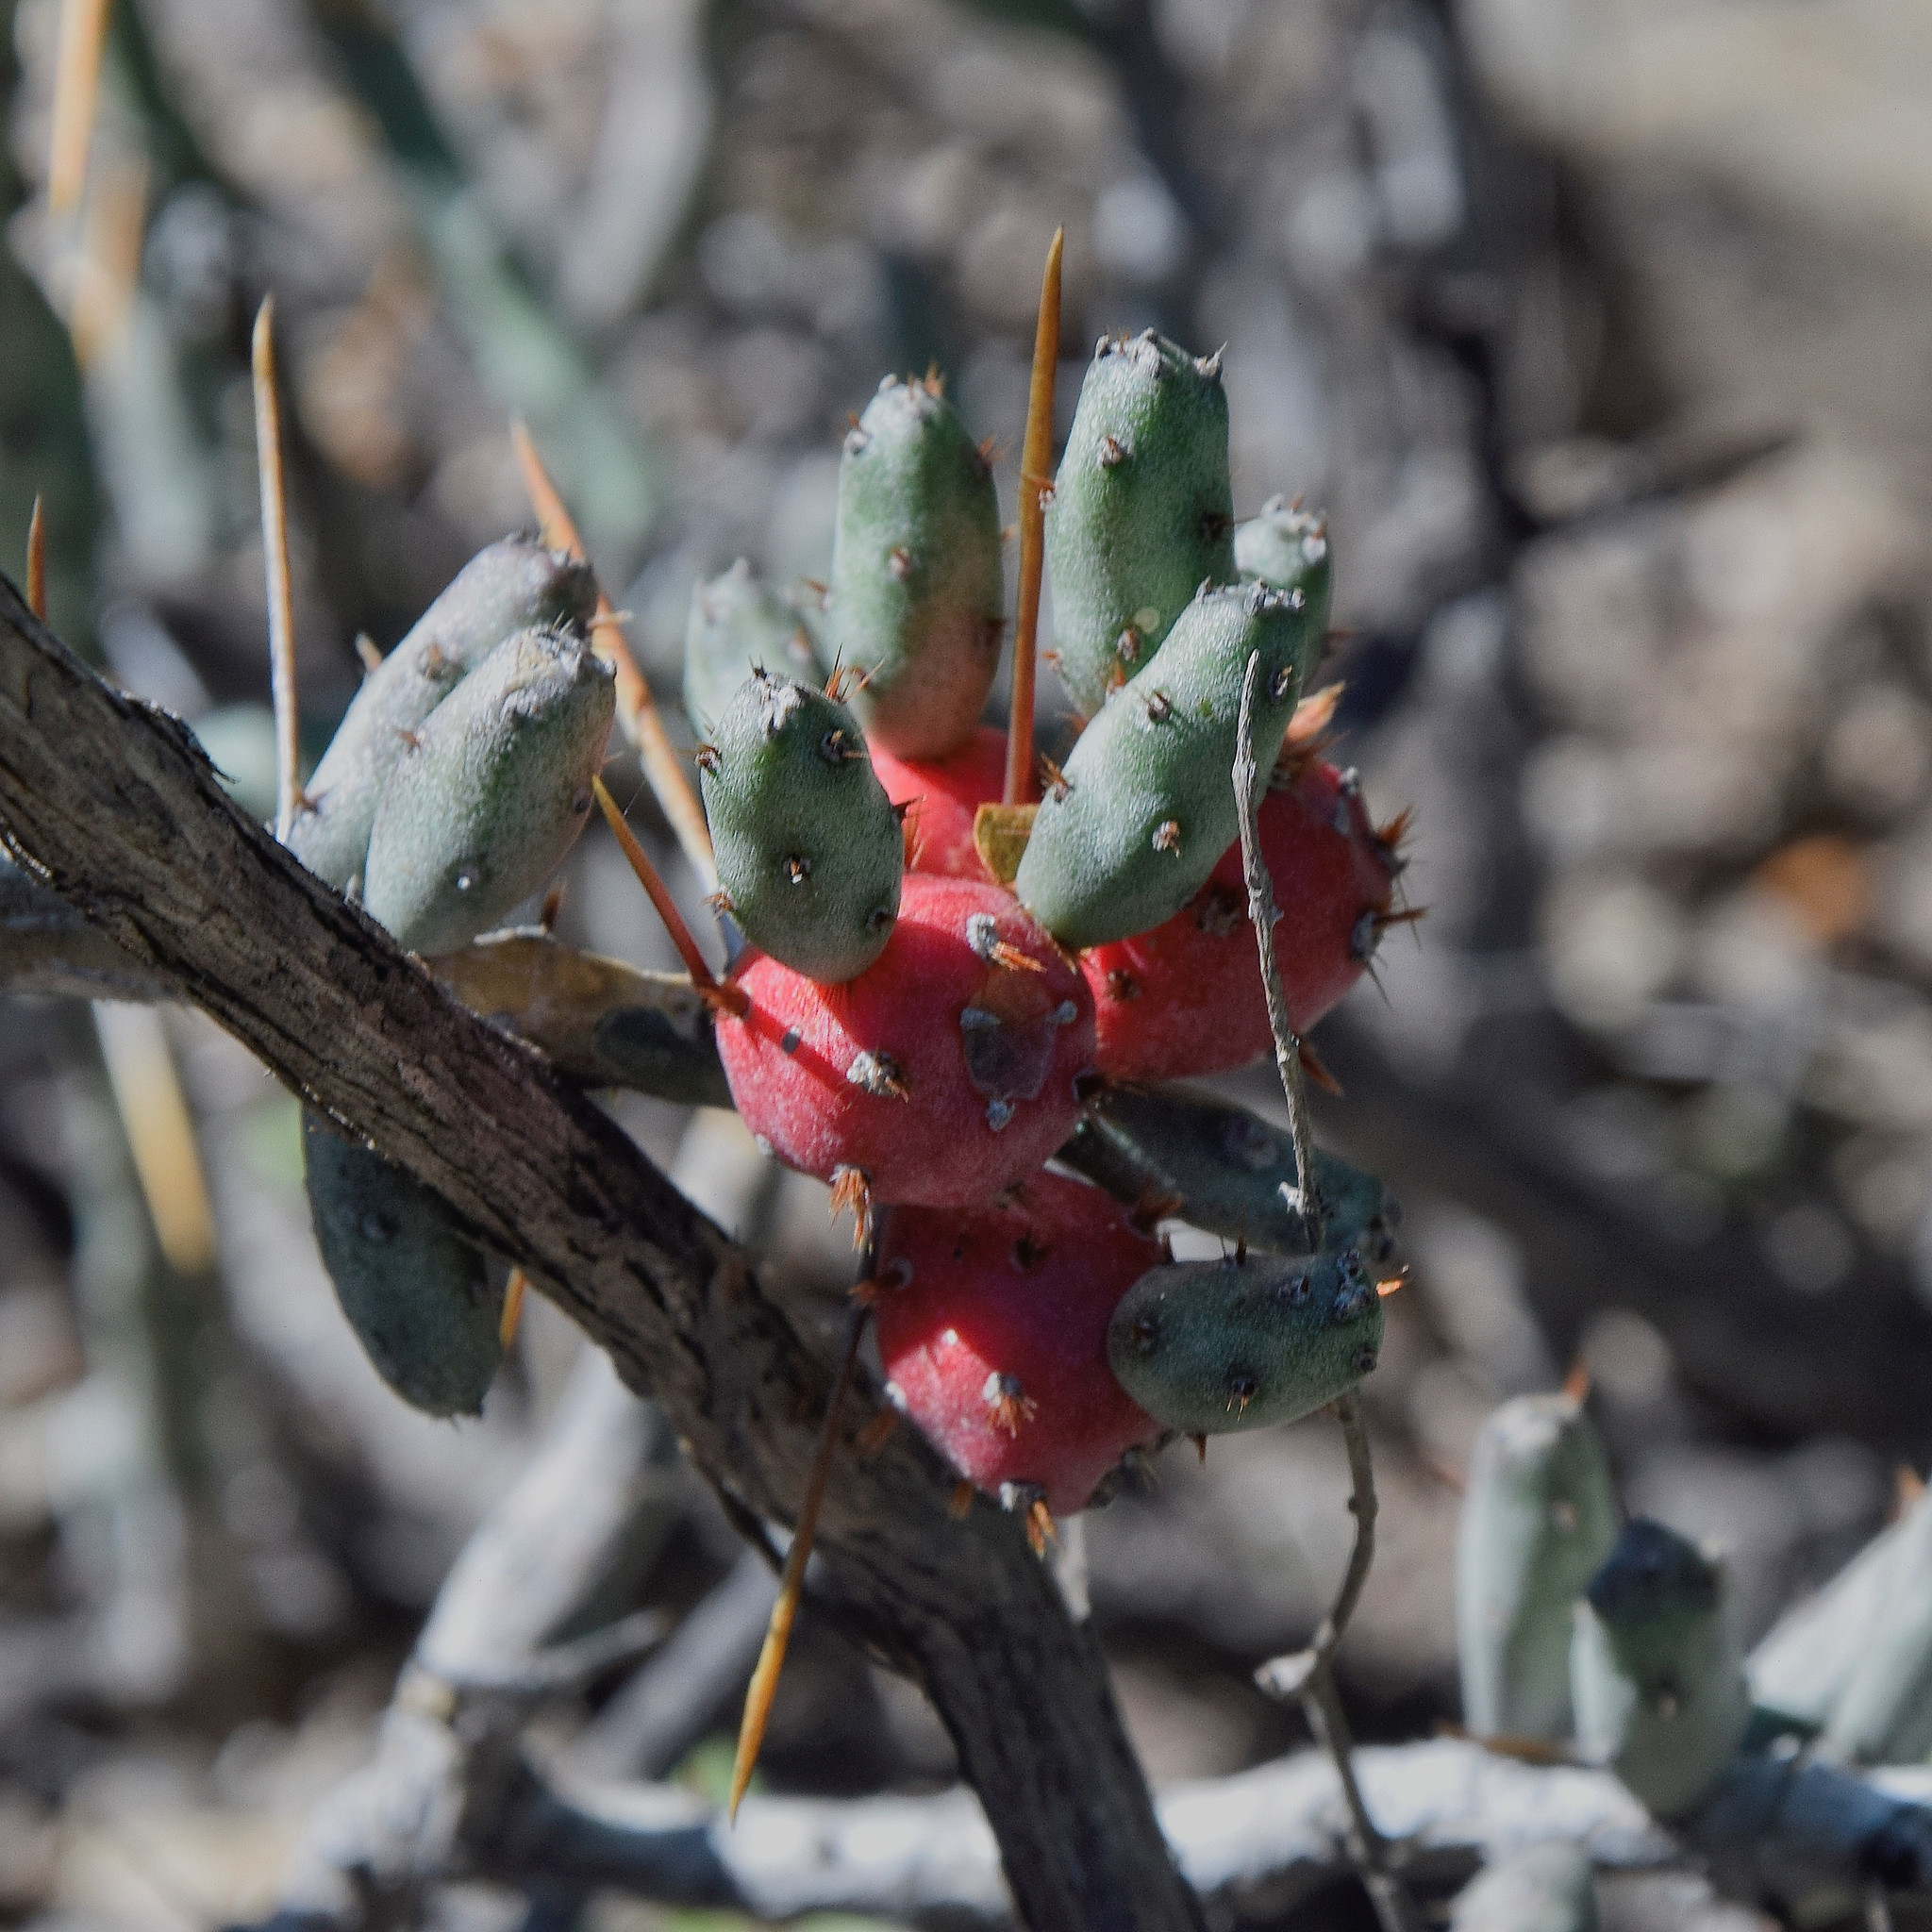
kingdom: Plantae
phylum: Tracheophyta
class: Magnoliopsida
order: Caryophyllales
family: Cactaceae
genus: Cylindropuntia
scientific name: Cylindropuntia leptocaulis
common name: Christmas cactus
